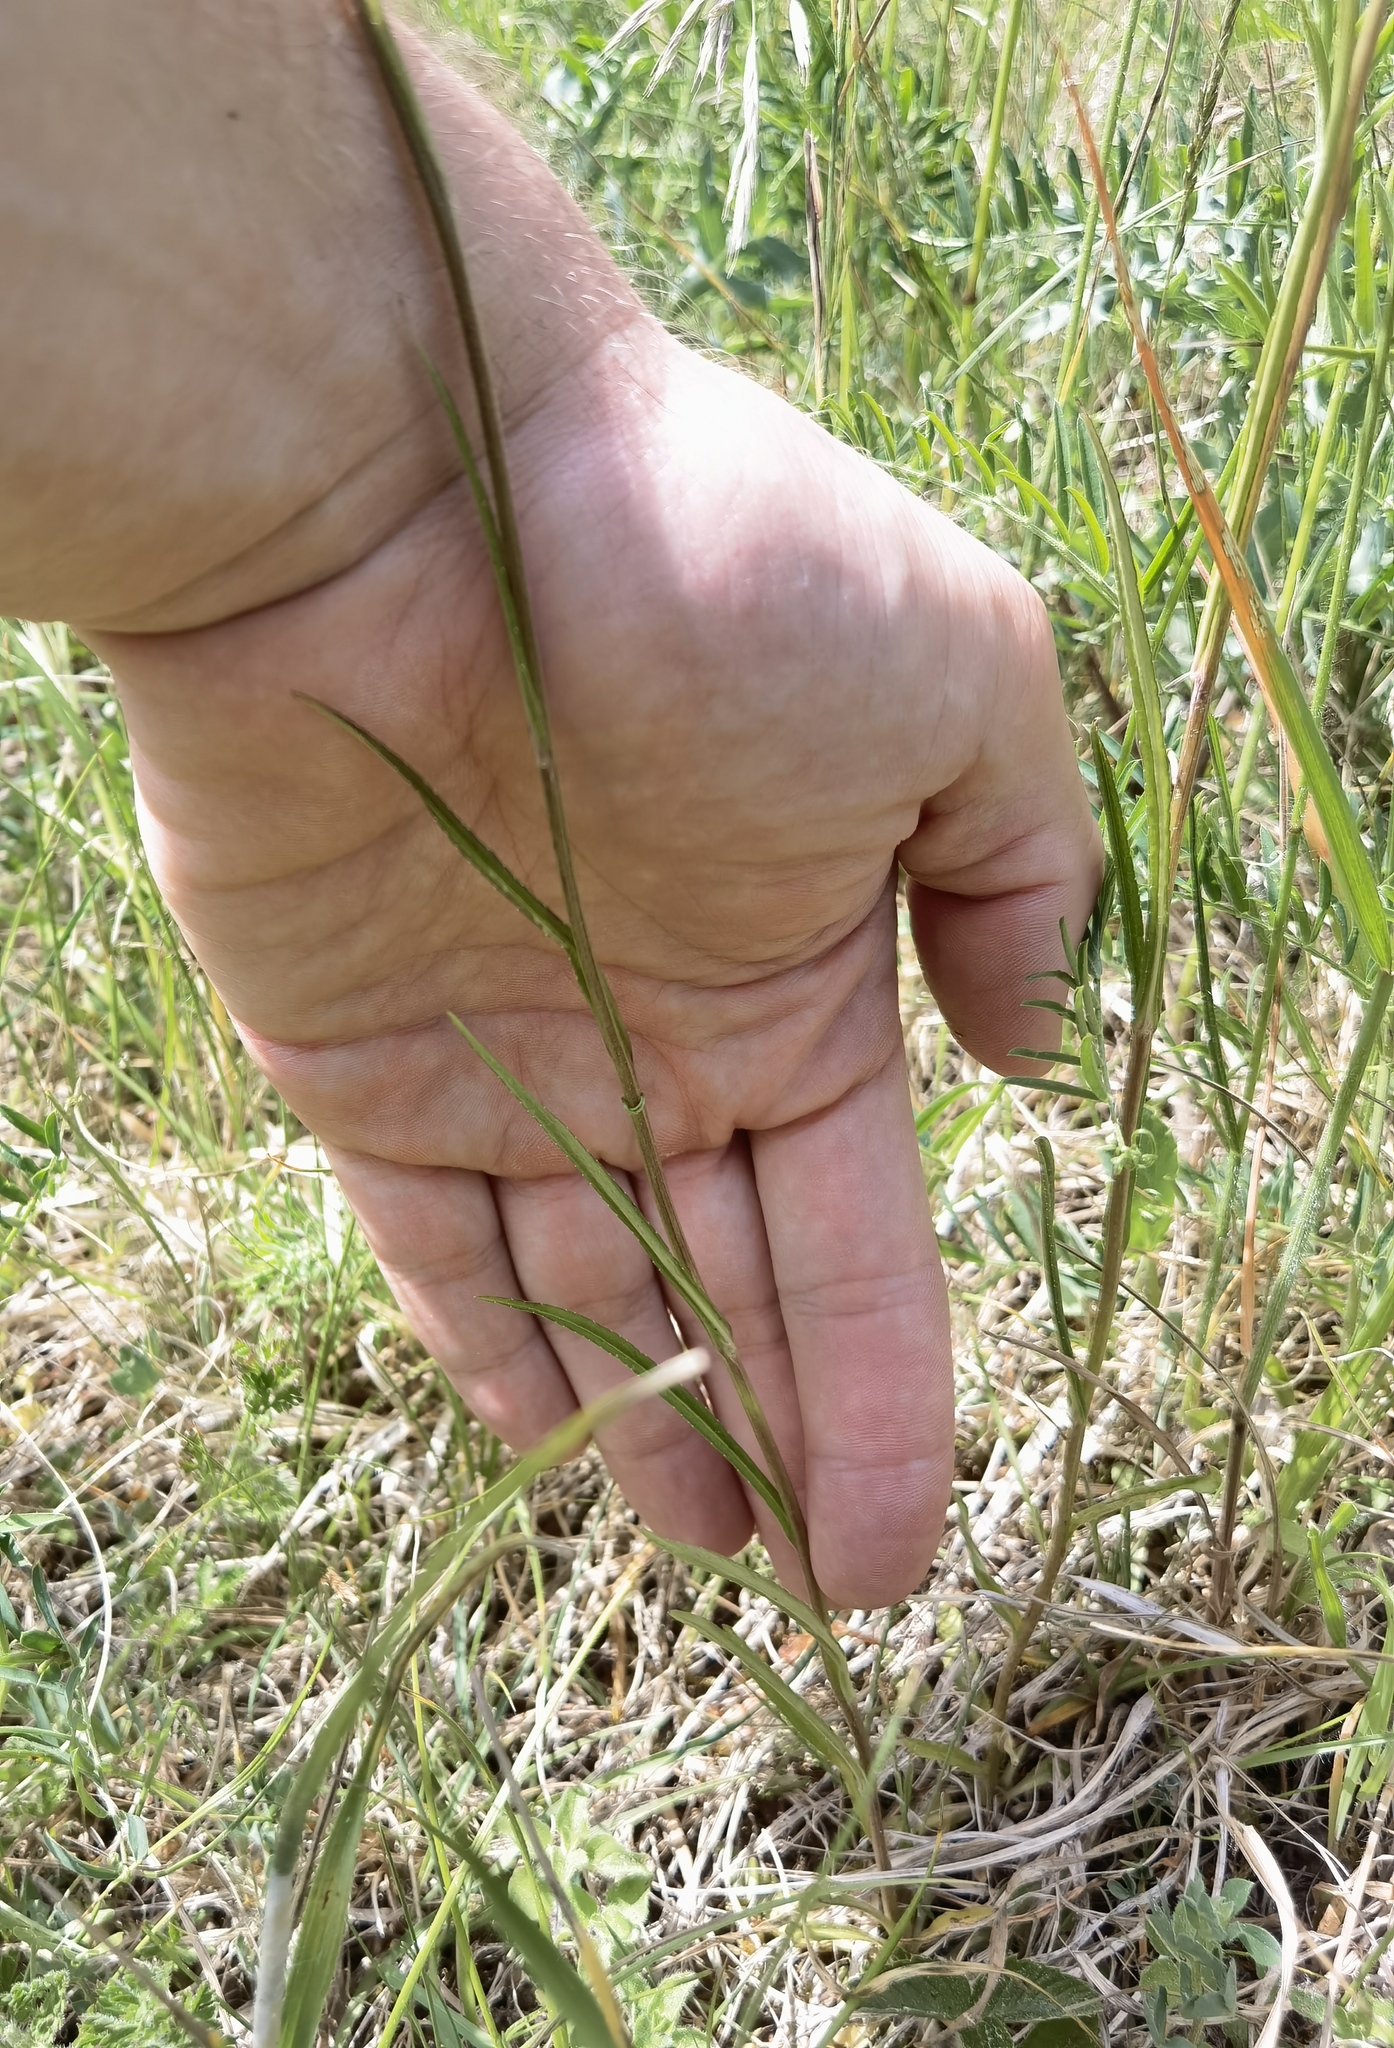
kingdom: Plantae
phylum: Tracheophyta
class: Magnoliopsida
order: Asterales
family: Campanulaceae
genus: Campanula
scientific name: Campanula persicifolia
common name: Peach-leaved bellflower
